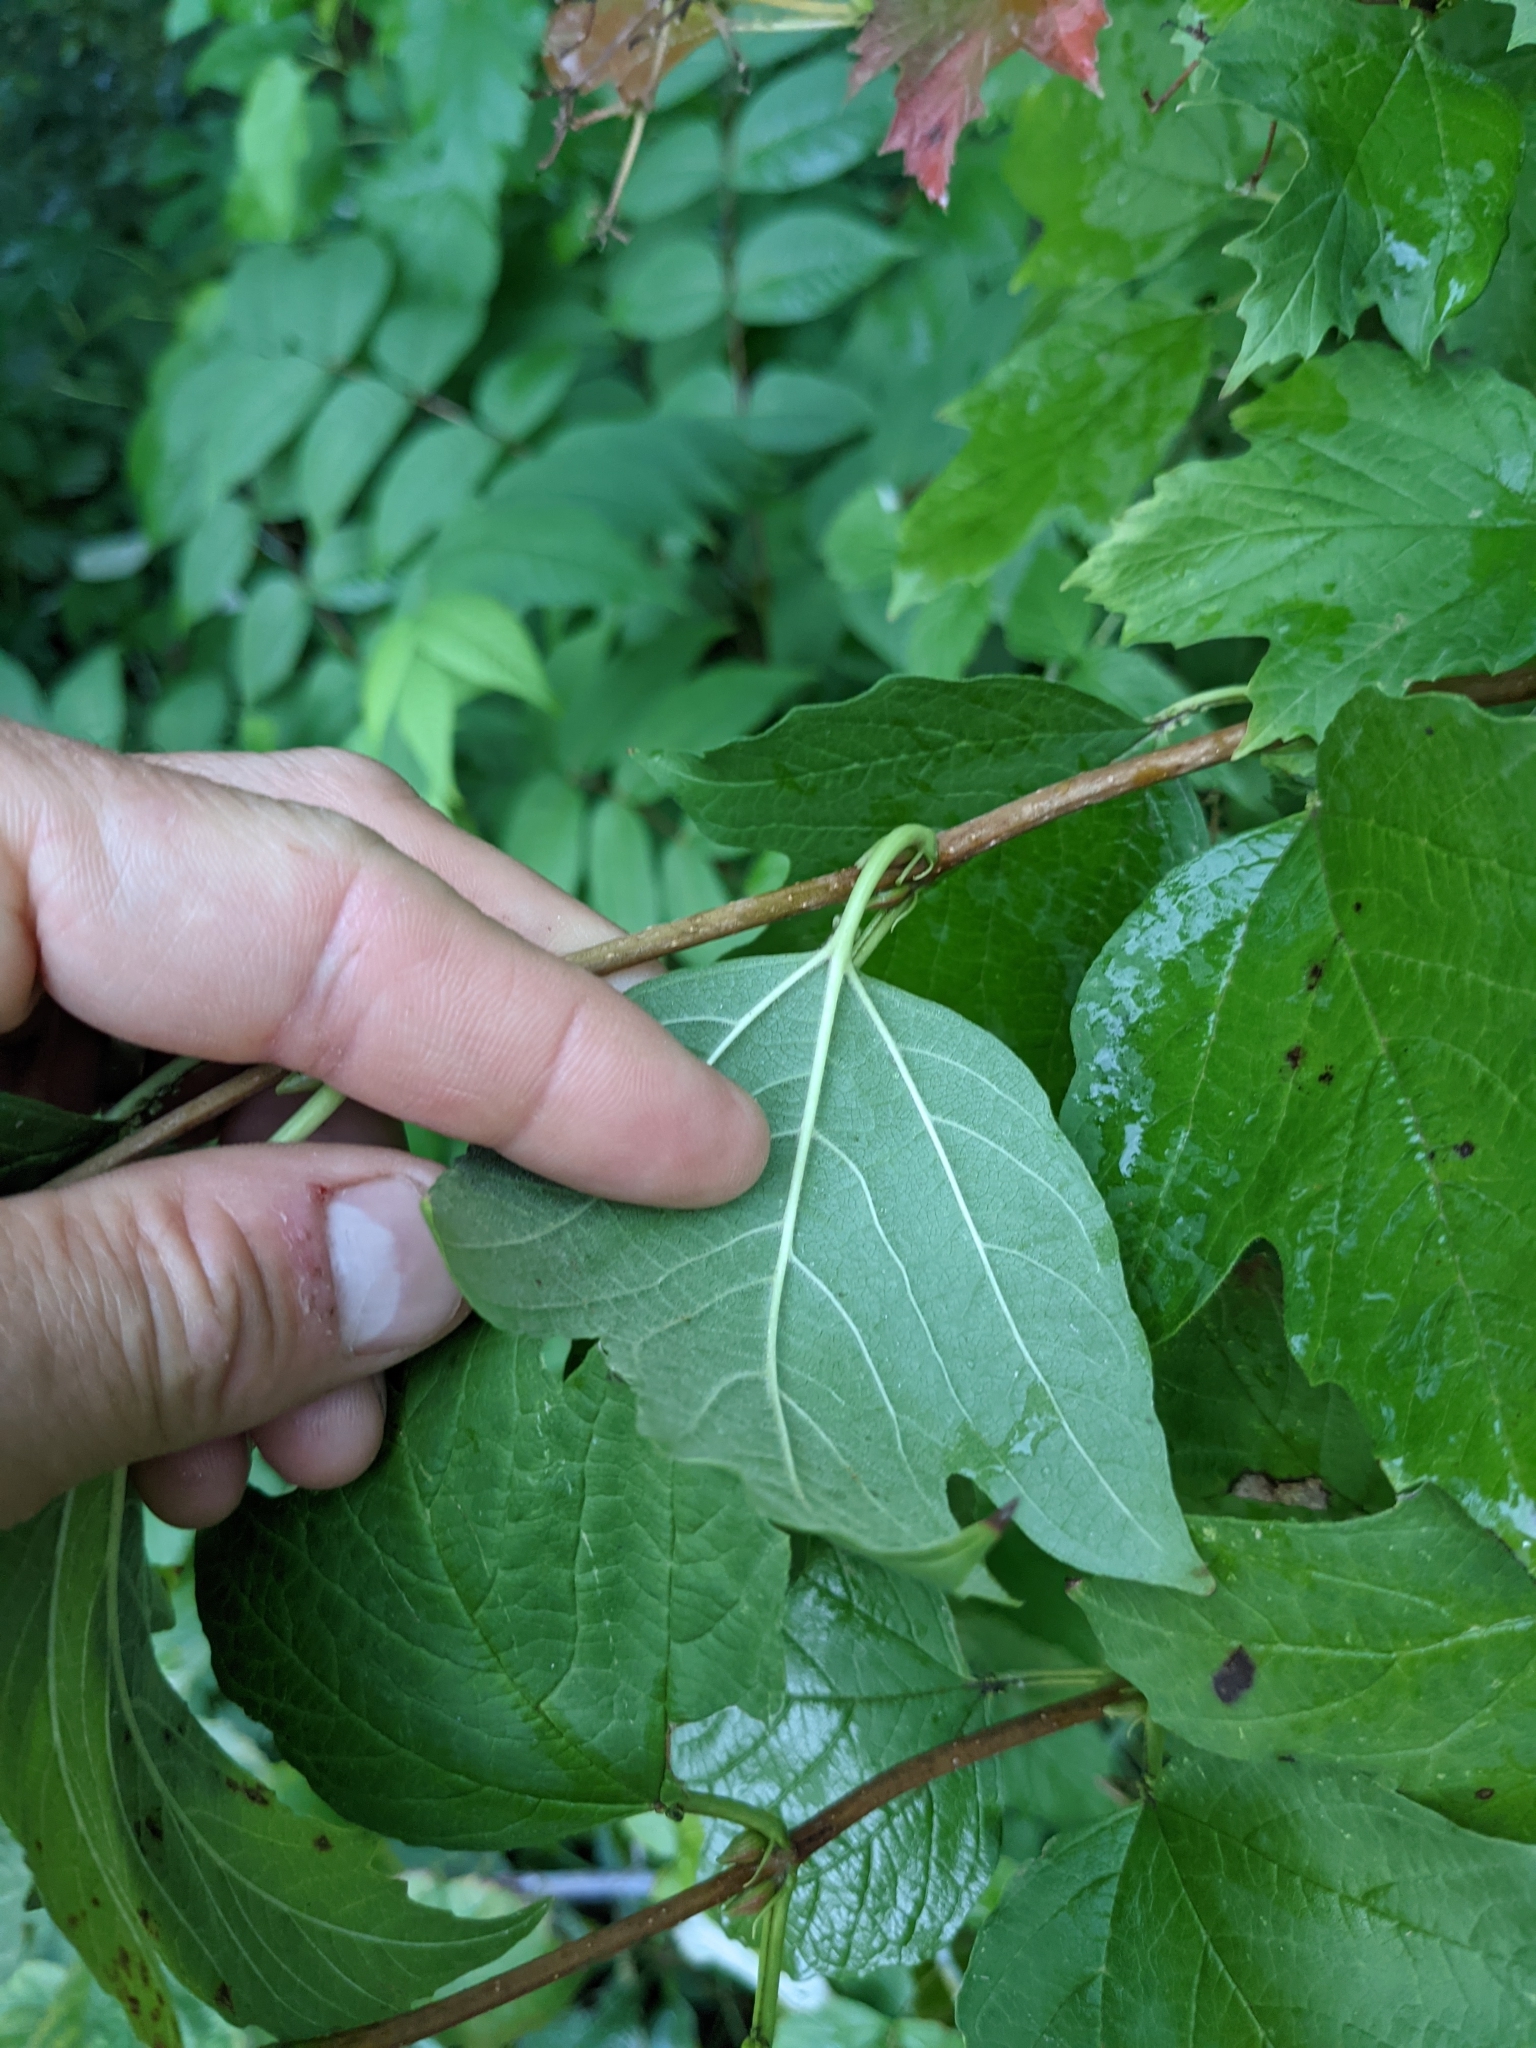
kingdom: Plantae
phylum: Tracheophyta
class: Magnoliopsida
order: Dipsacales
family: Viburnaceae
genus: Viburnum
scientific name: Viburnum opulus
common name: Guelder-rose
